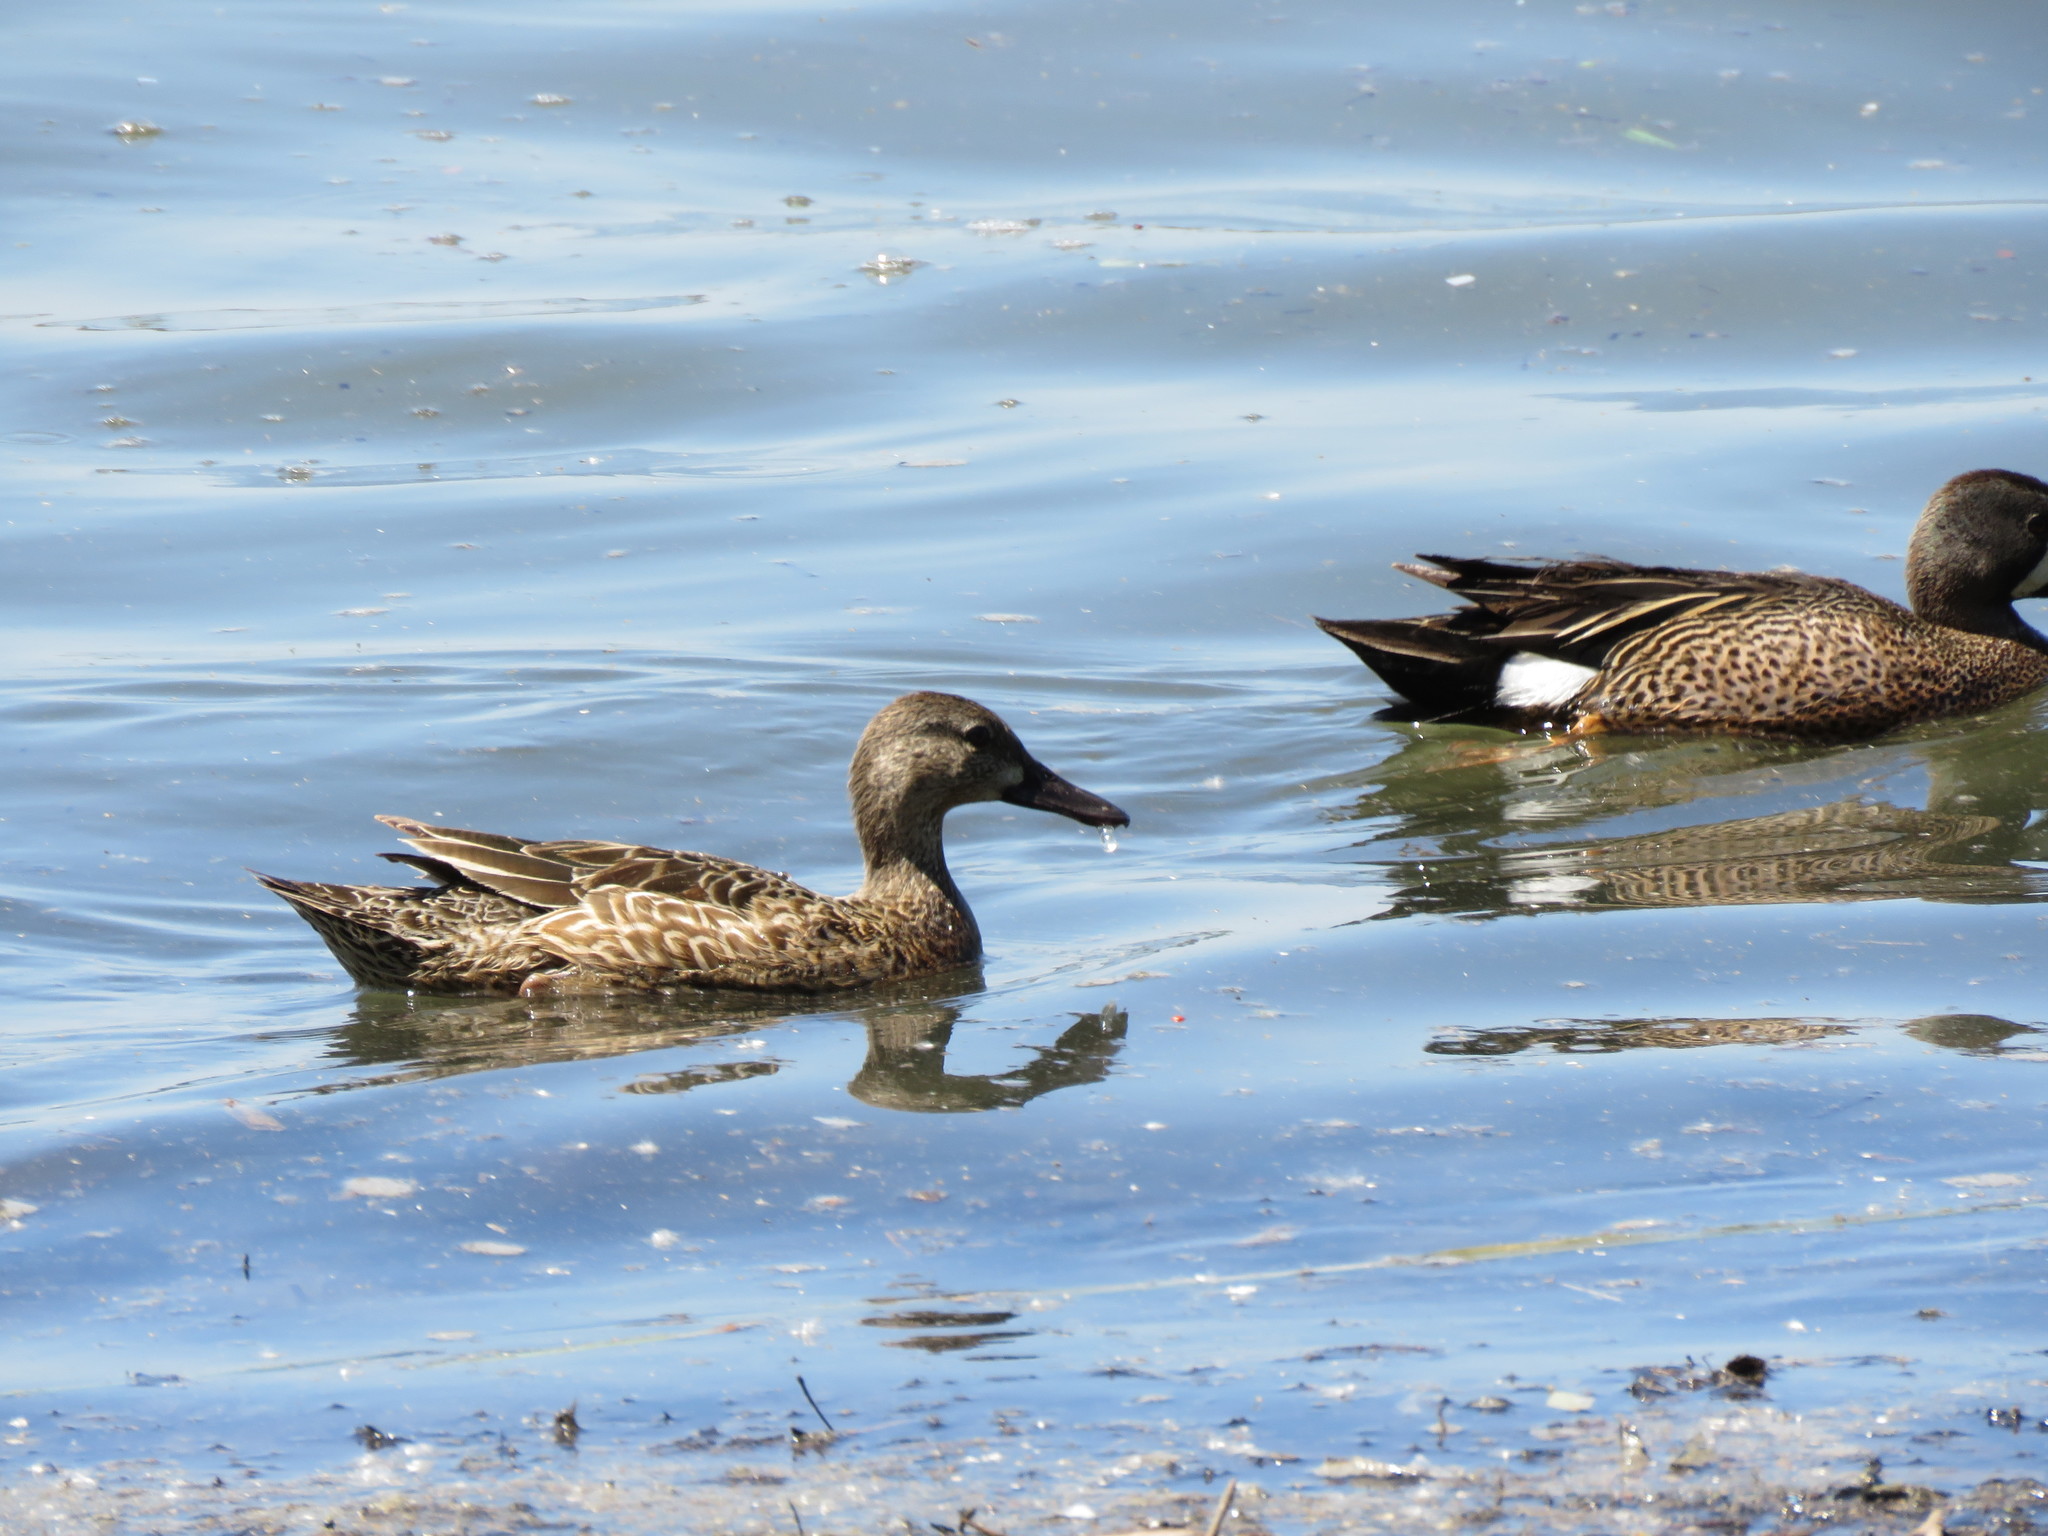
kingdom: Animalia
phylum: Chordata
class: Aves
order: Anseriformes
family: Anatidae
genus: Spatula
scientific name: Spatula discors
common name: Blue-winged teal
